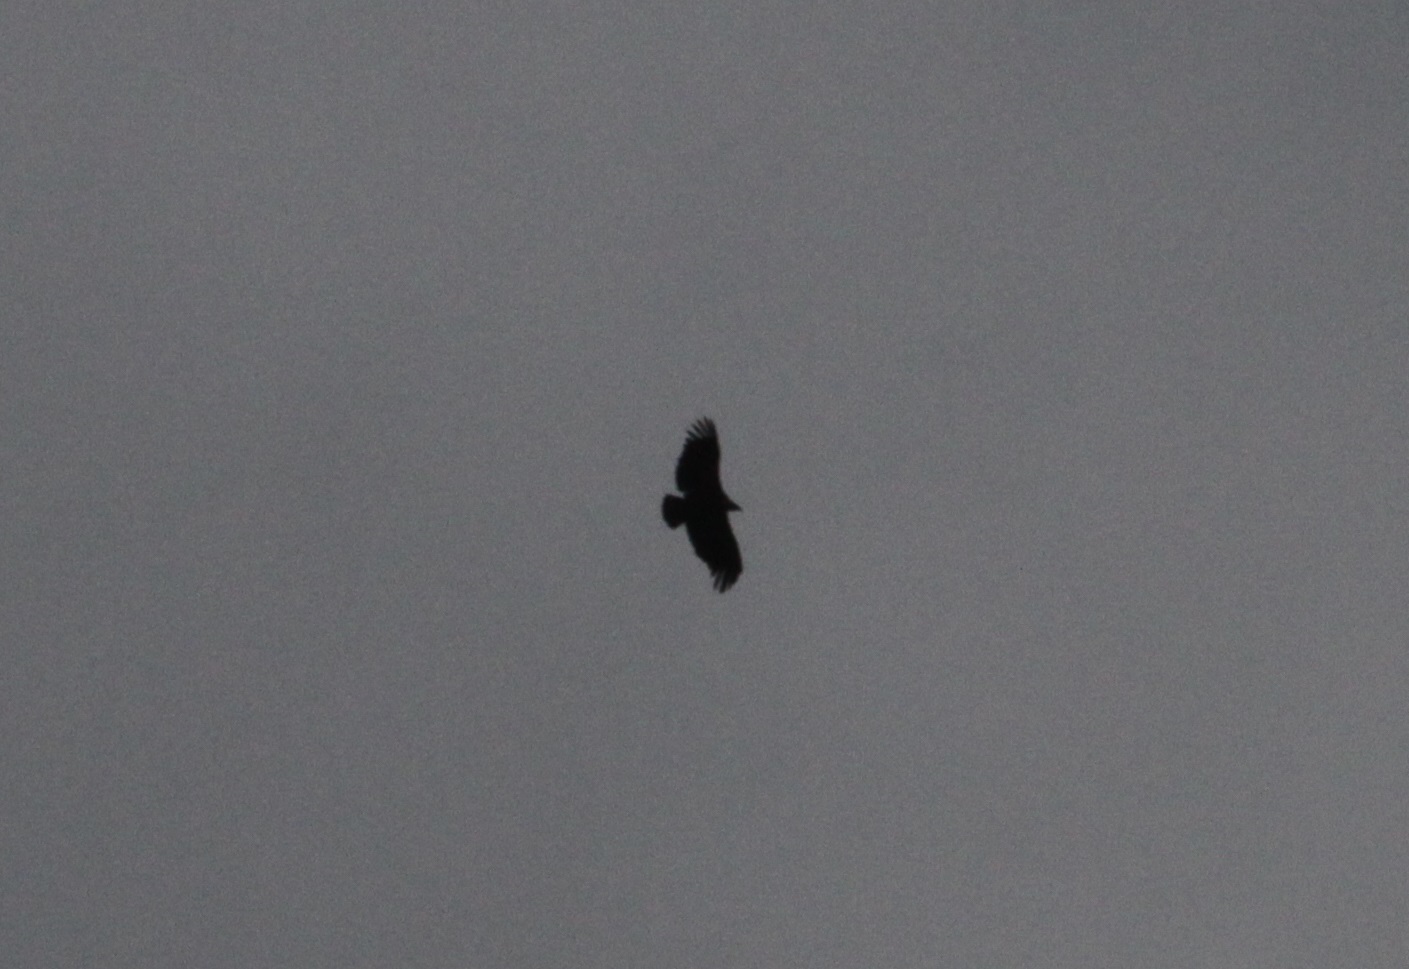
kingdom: Animalia
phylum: Chordata
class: Aves
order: Accipitriformes
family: Accipitridae
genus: Gyps
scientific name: Gyps fulvus
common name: Griffon vulture
